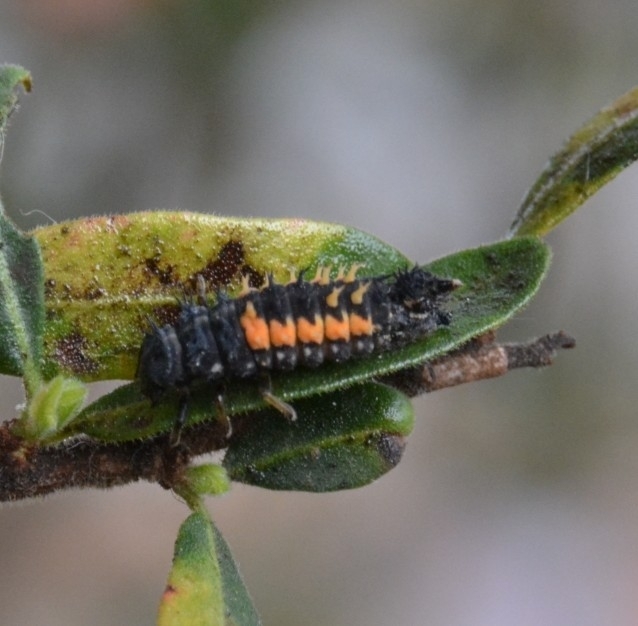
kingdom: Animalia
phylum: Arthropoda
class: Insecta
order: Coleoptera
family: Coccinellidae
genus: Harmonia
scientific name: Harmonia axyridis
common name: Harlequin ladybird
